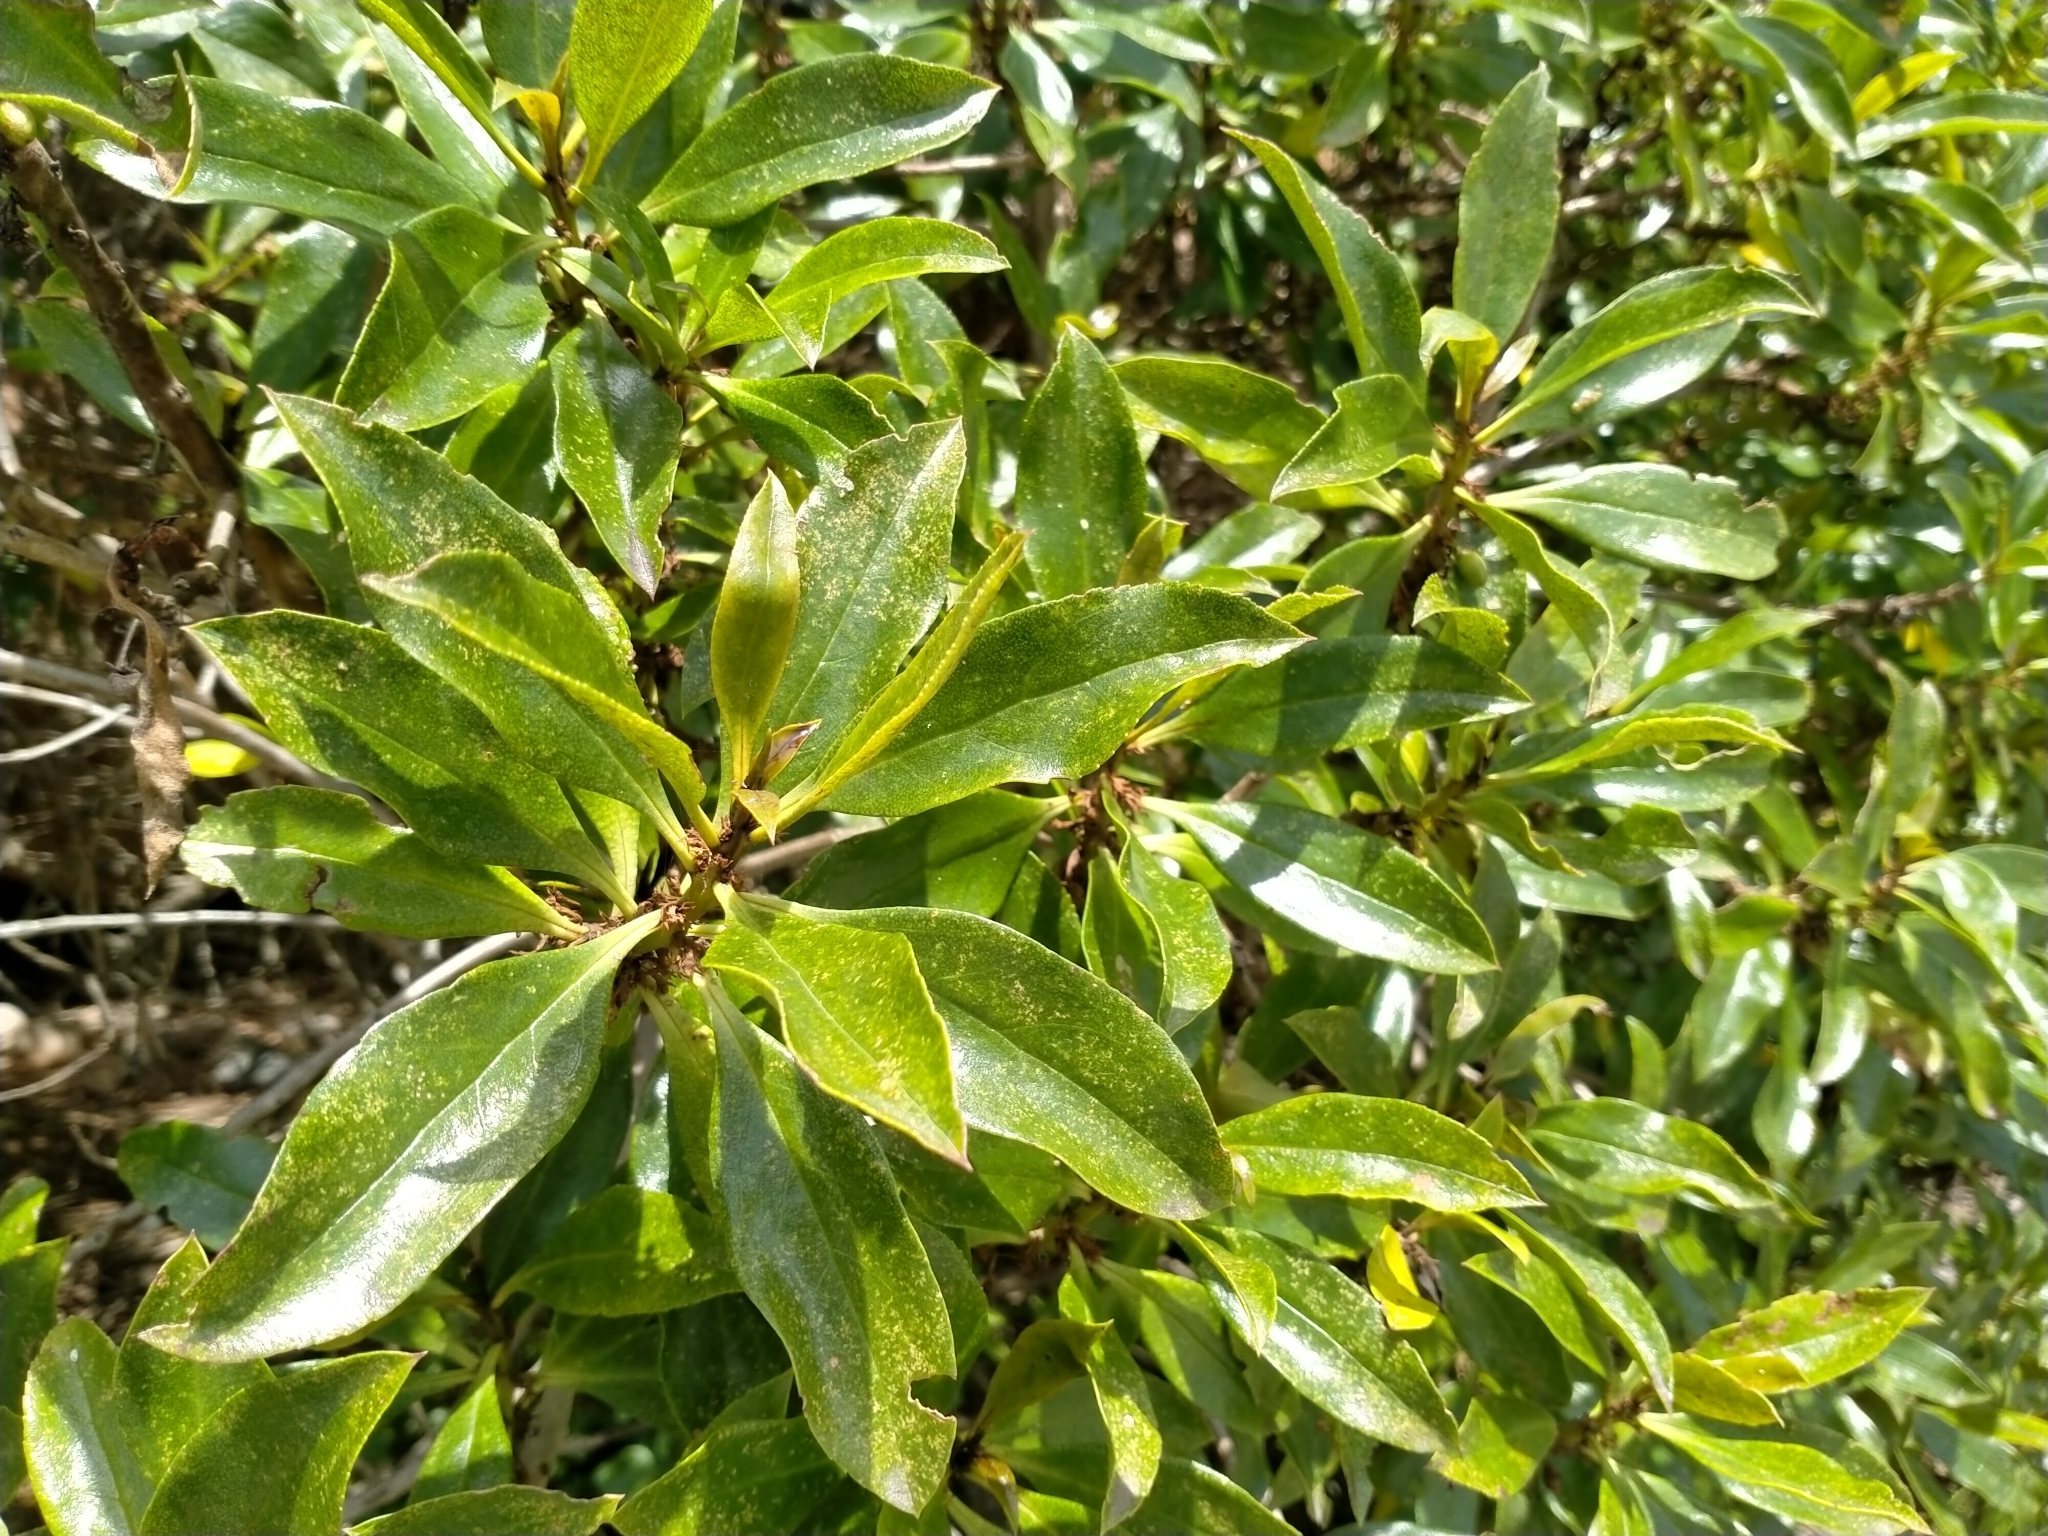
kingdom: Plantae
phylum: Tracheophyta
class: Magnoliopsida
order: Lamiales
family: Scrophulariaceae
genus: Myoporum
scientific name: Myoporum laetum
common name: Ngaio tree
